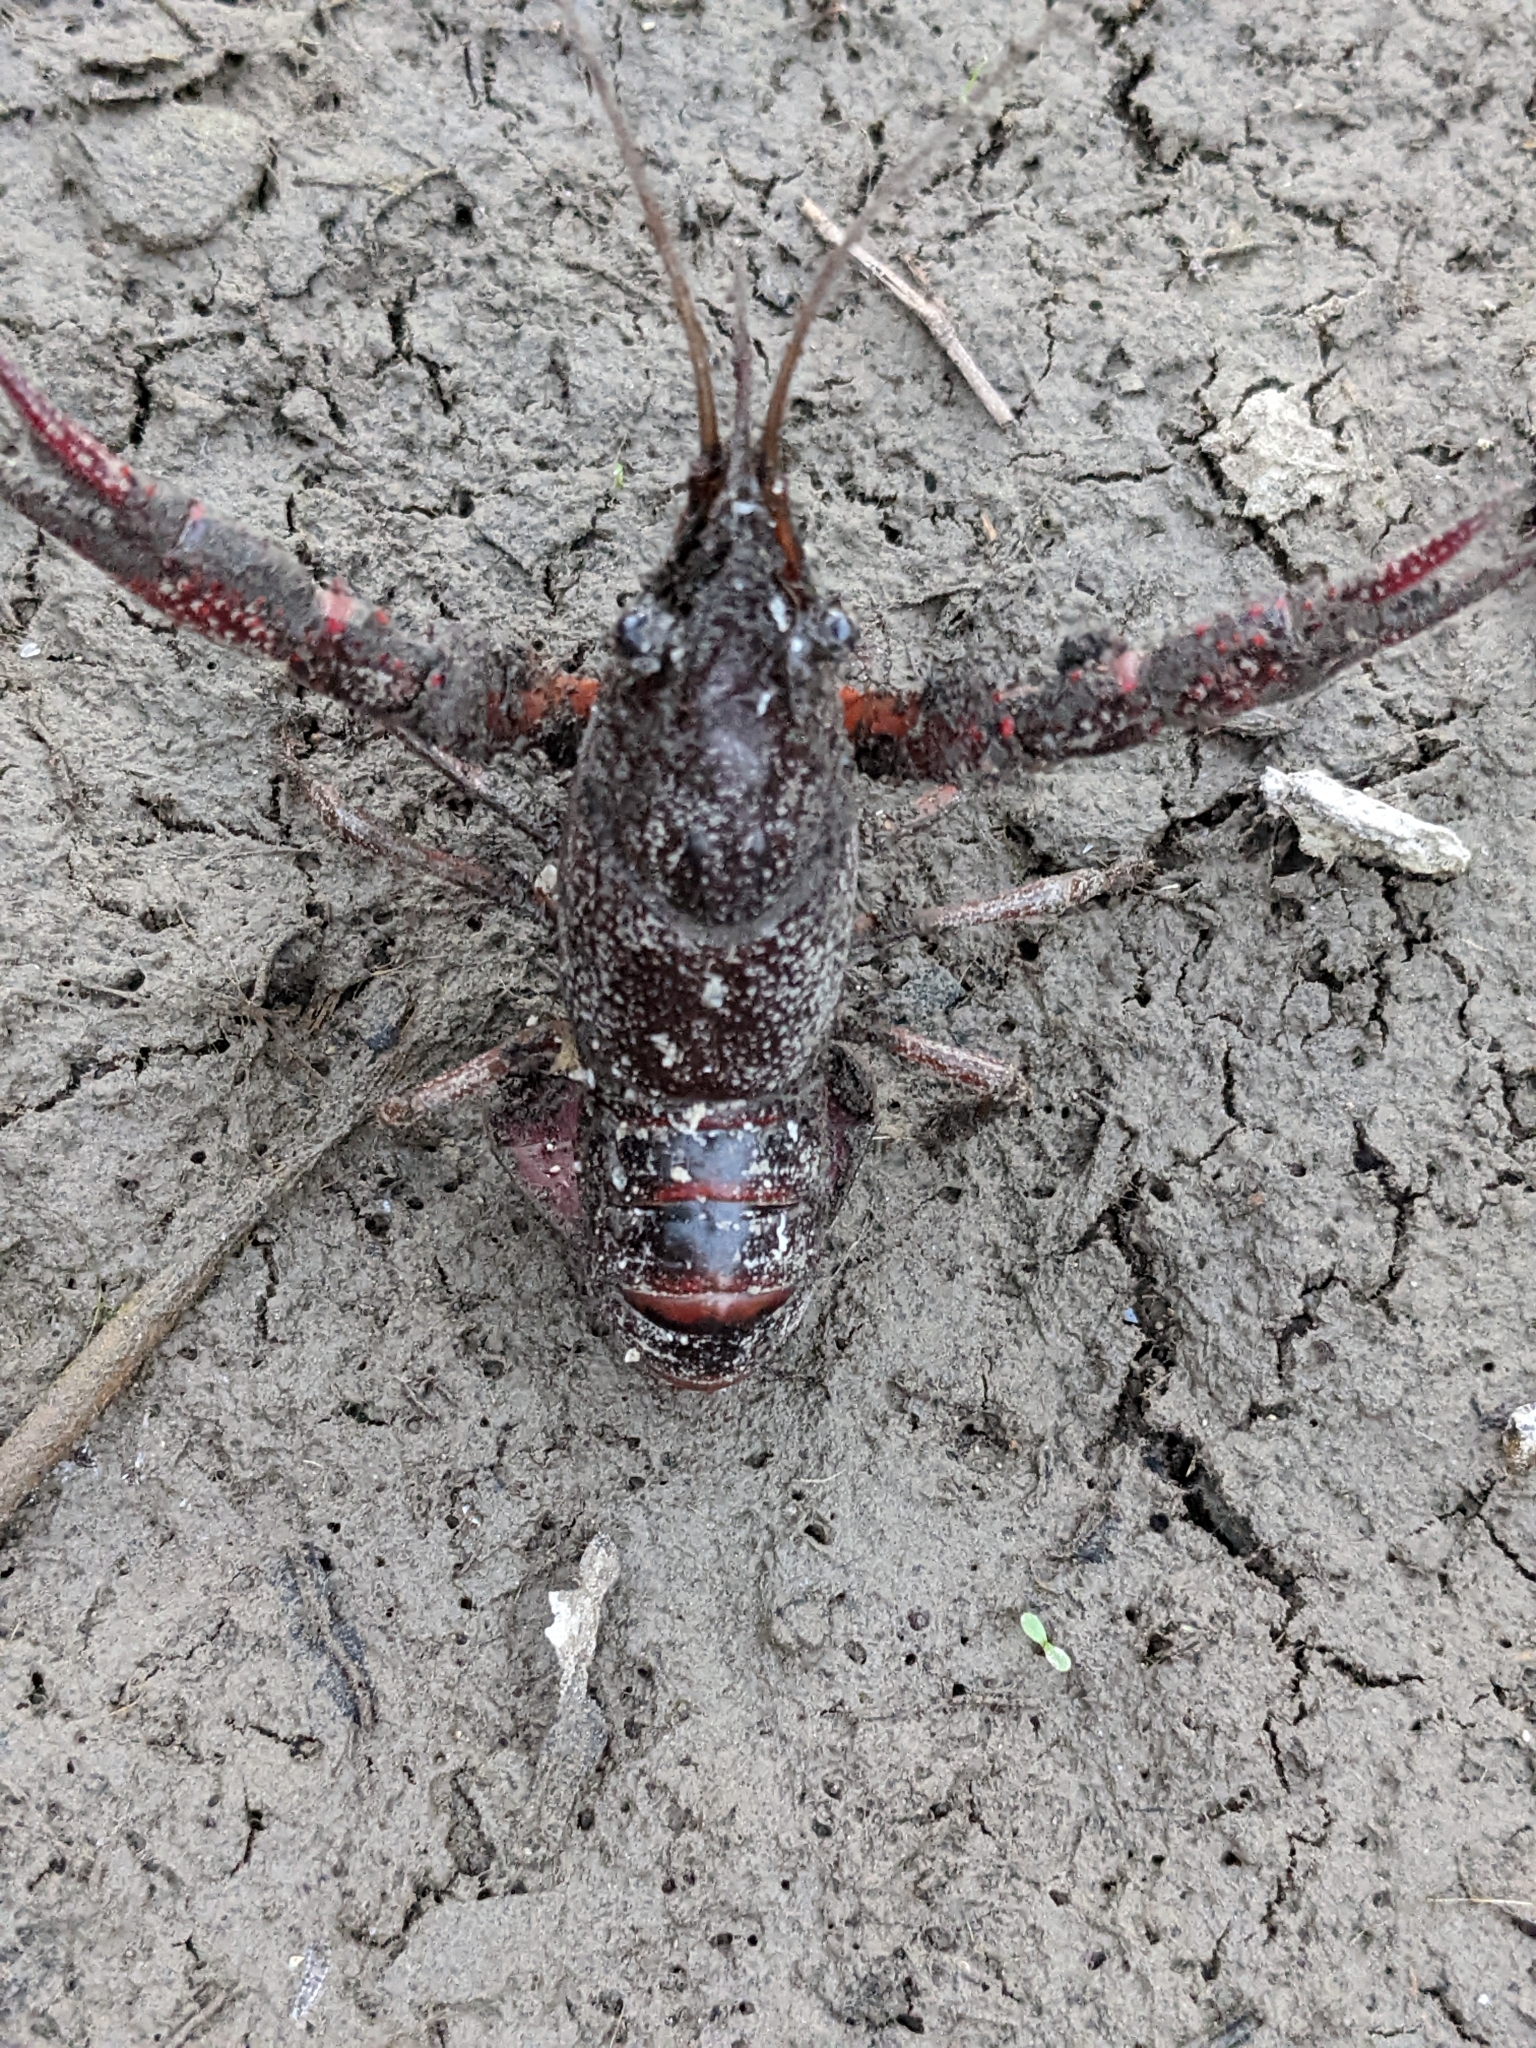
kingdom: Animalia
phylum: Arthropoda
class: Malacostraca
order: Decapoda
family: Cambaridae
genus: Procambarus
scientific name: Procambarus clarkii
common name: Red swamp crayfish
